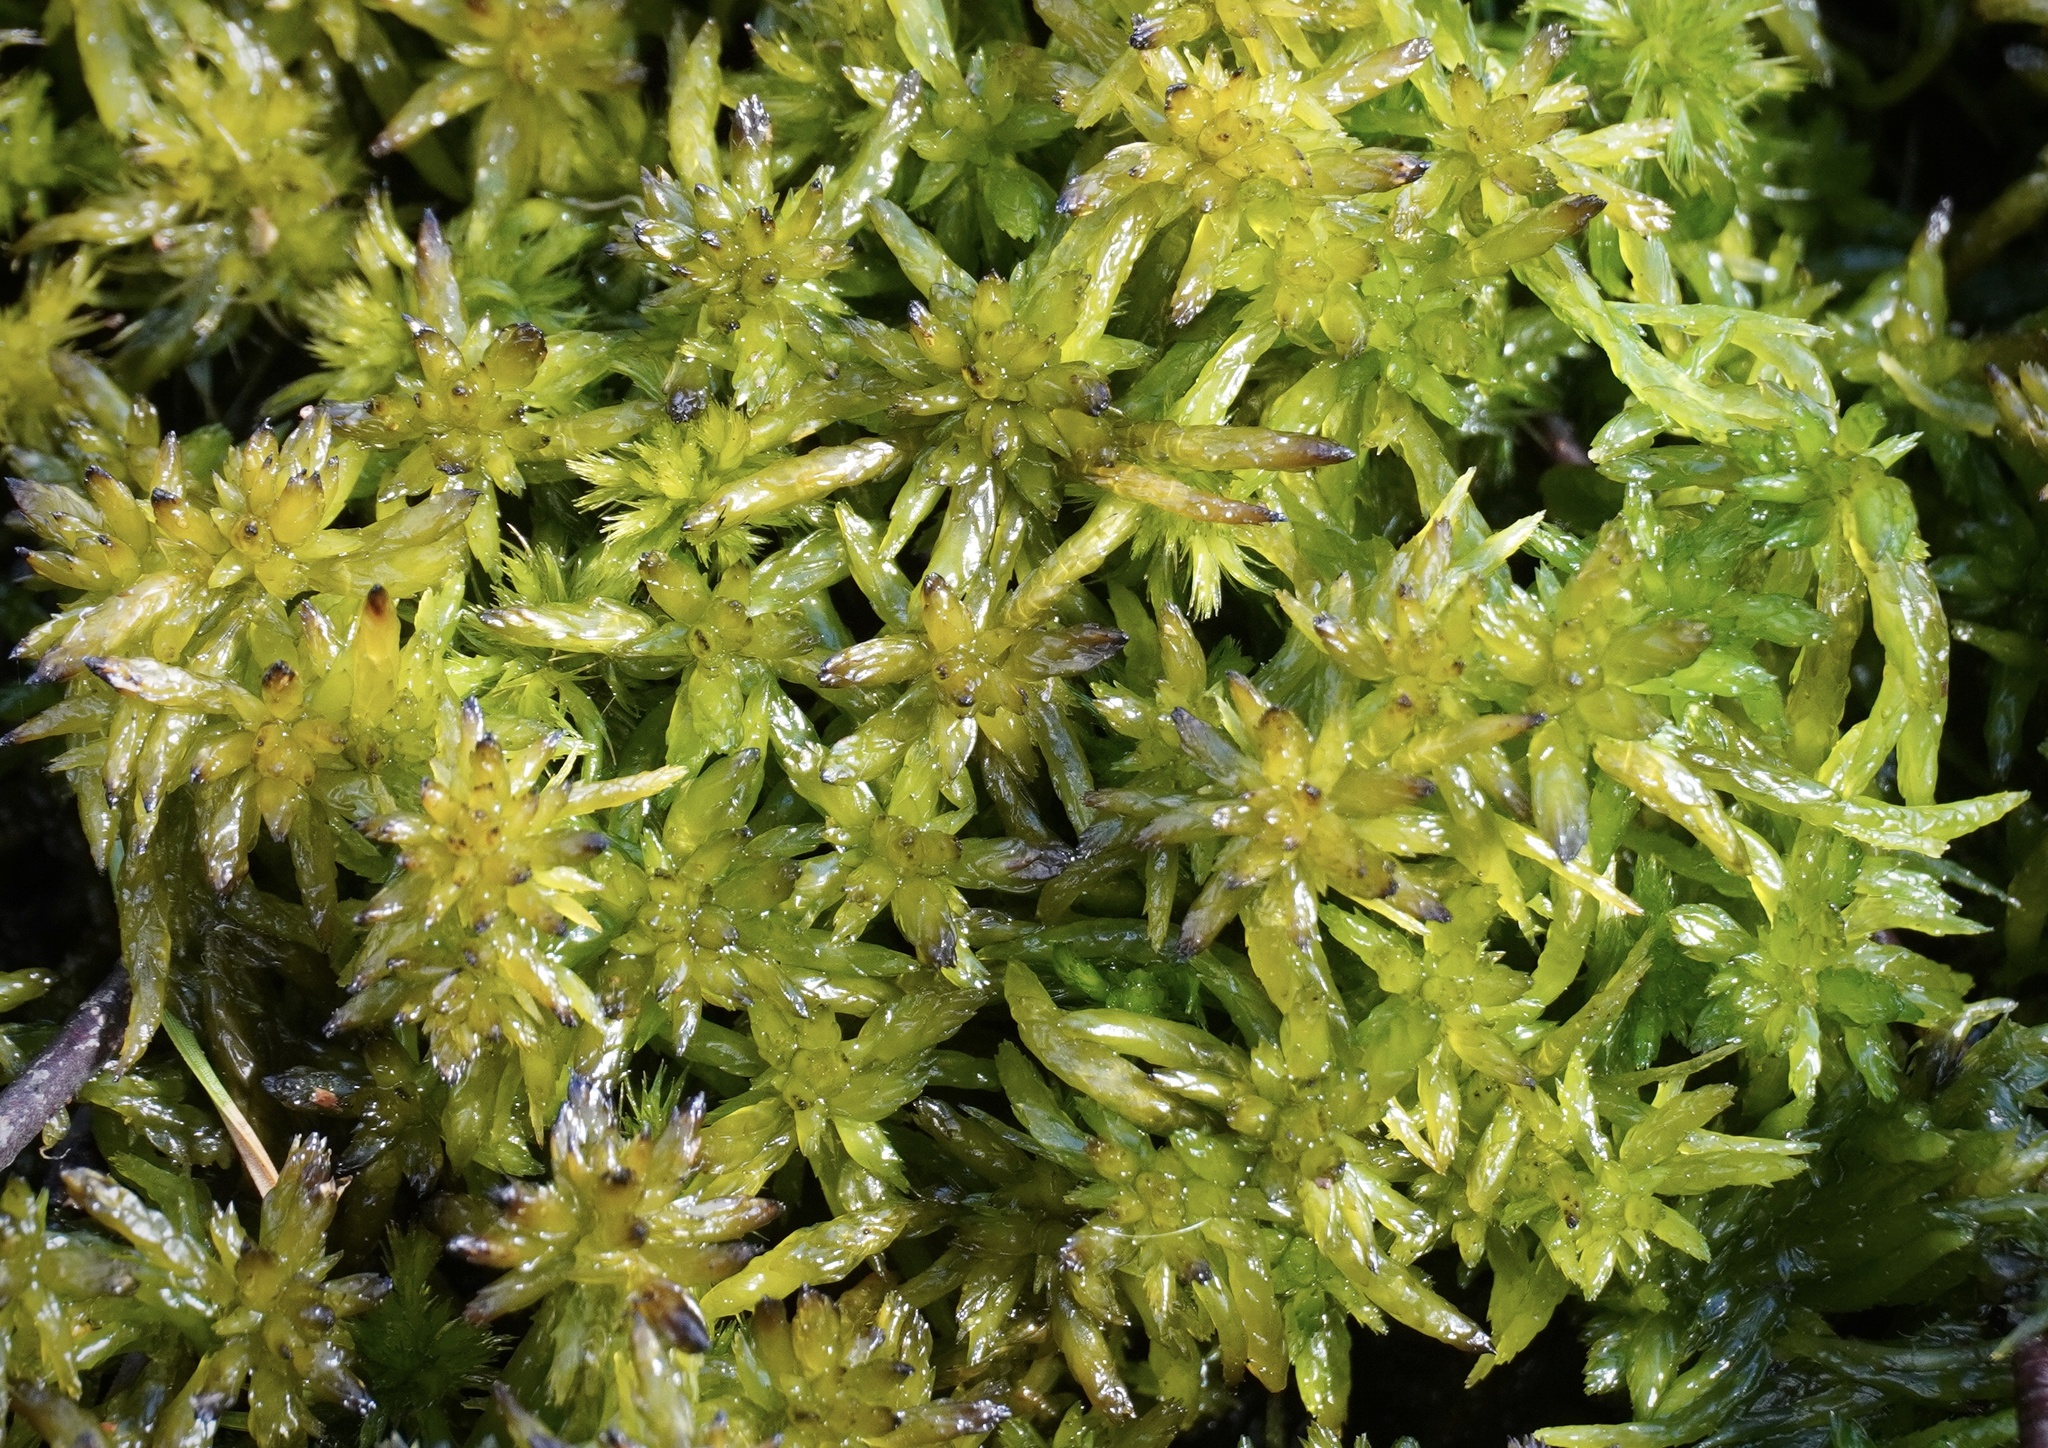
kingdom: Plantae
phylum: Bryophyta
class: Sphagnopsida
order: Sphagnales
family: Sphagnaceae
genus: Sphagnum
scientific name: Sphagnum denticulatum
